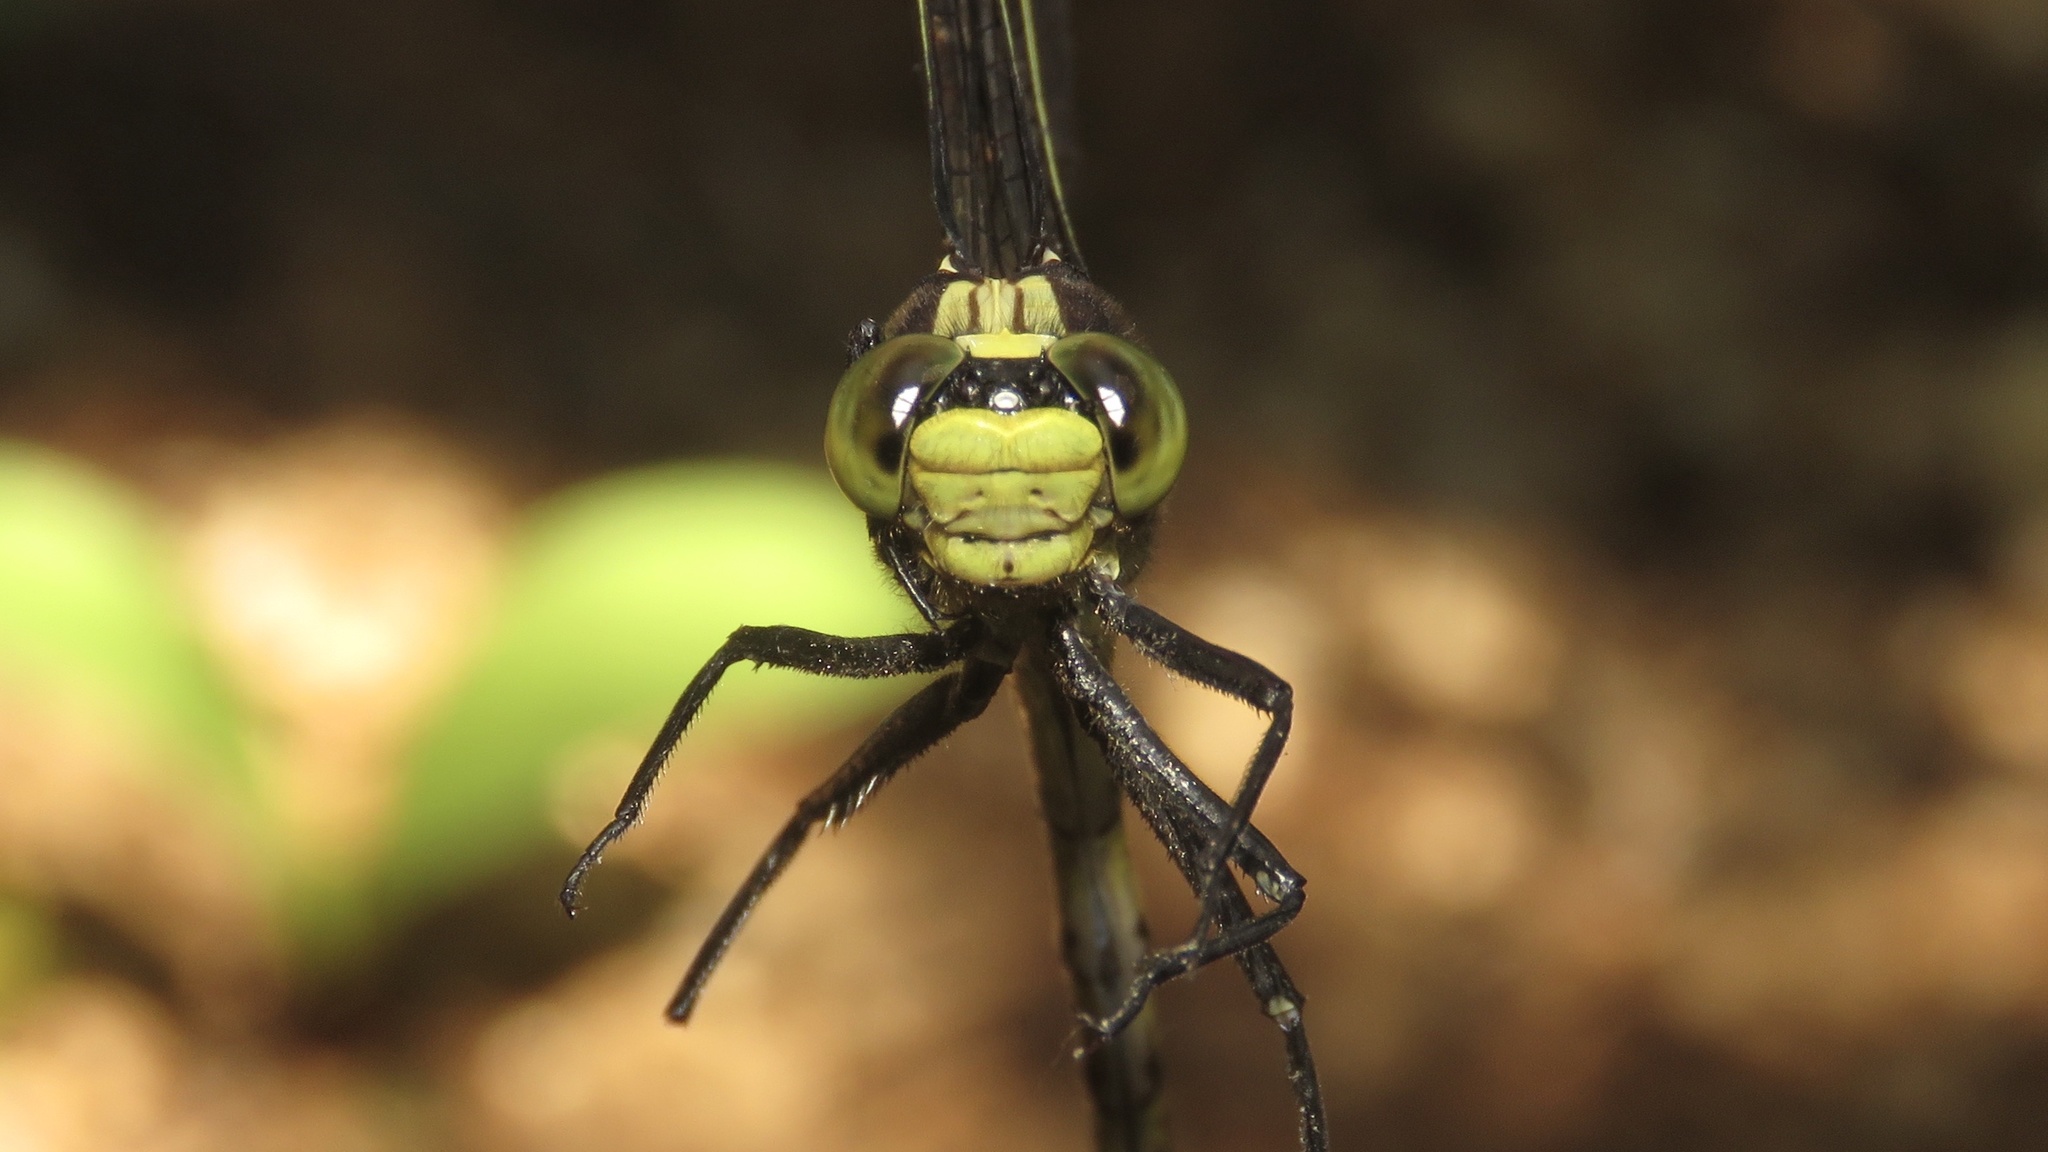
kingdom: Animalia
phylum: Arthropoda
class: Insecta
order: Odonata
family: Gomphidae
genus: Dromogomphus
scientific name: Dromogomphus spinosus
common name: Black-shouldered spinyleg
